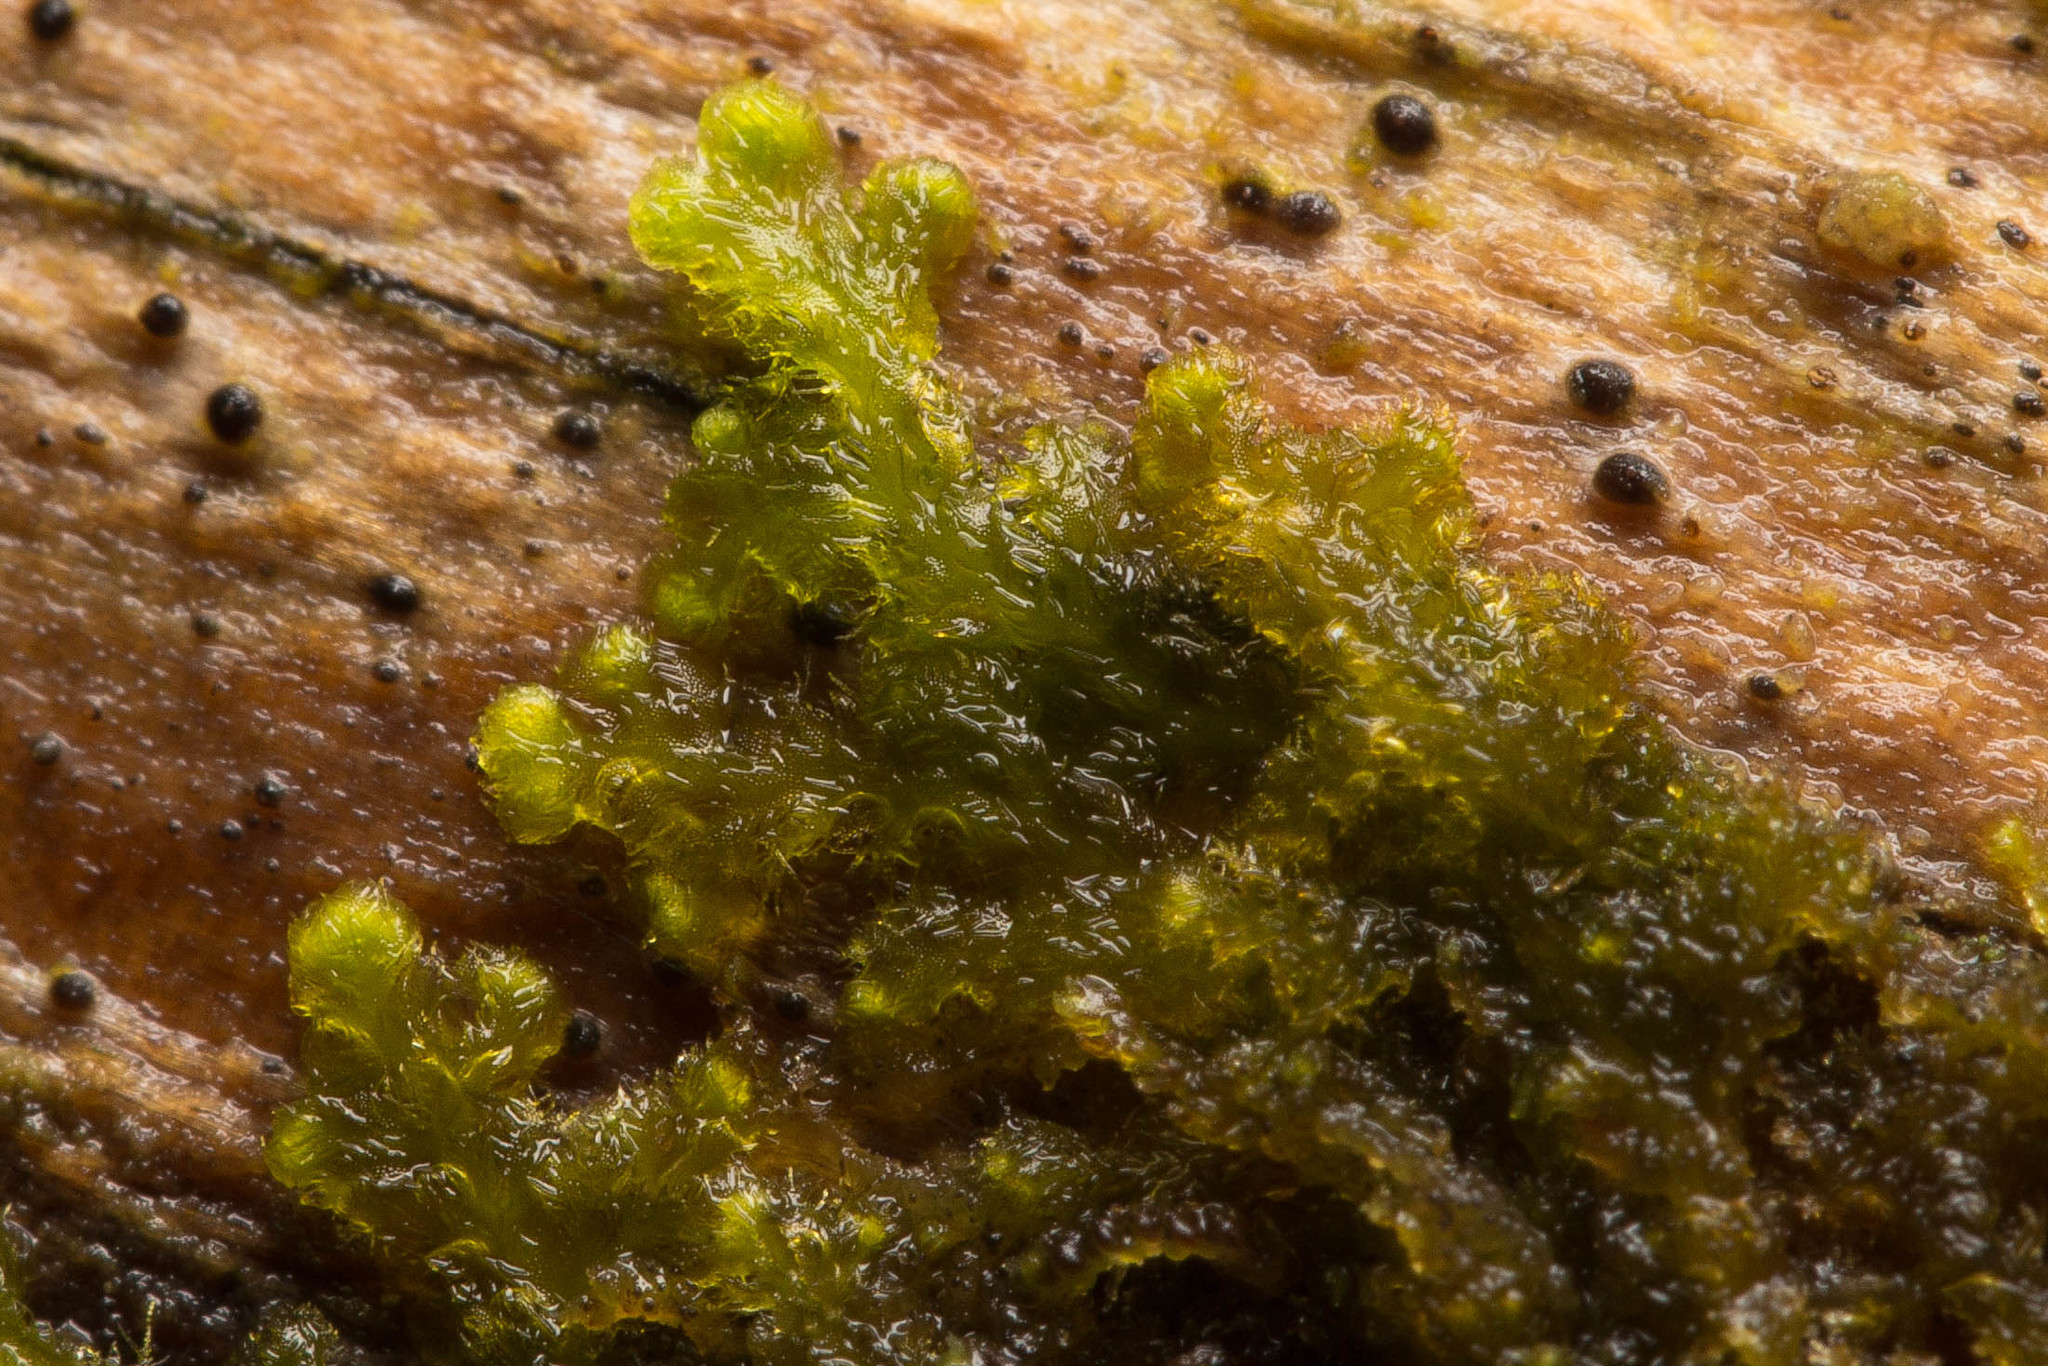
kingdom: Plantae
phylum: Marchantiophyta
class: Jungermanniopsida
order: Ptilidiales
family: Ptilidiaceae
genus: Ptilidium
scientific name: Ptilidium pulcherrimum
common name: Tree fringewort
